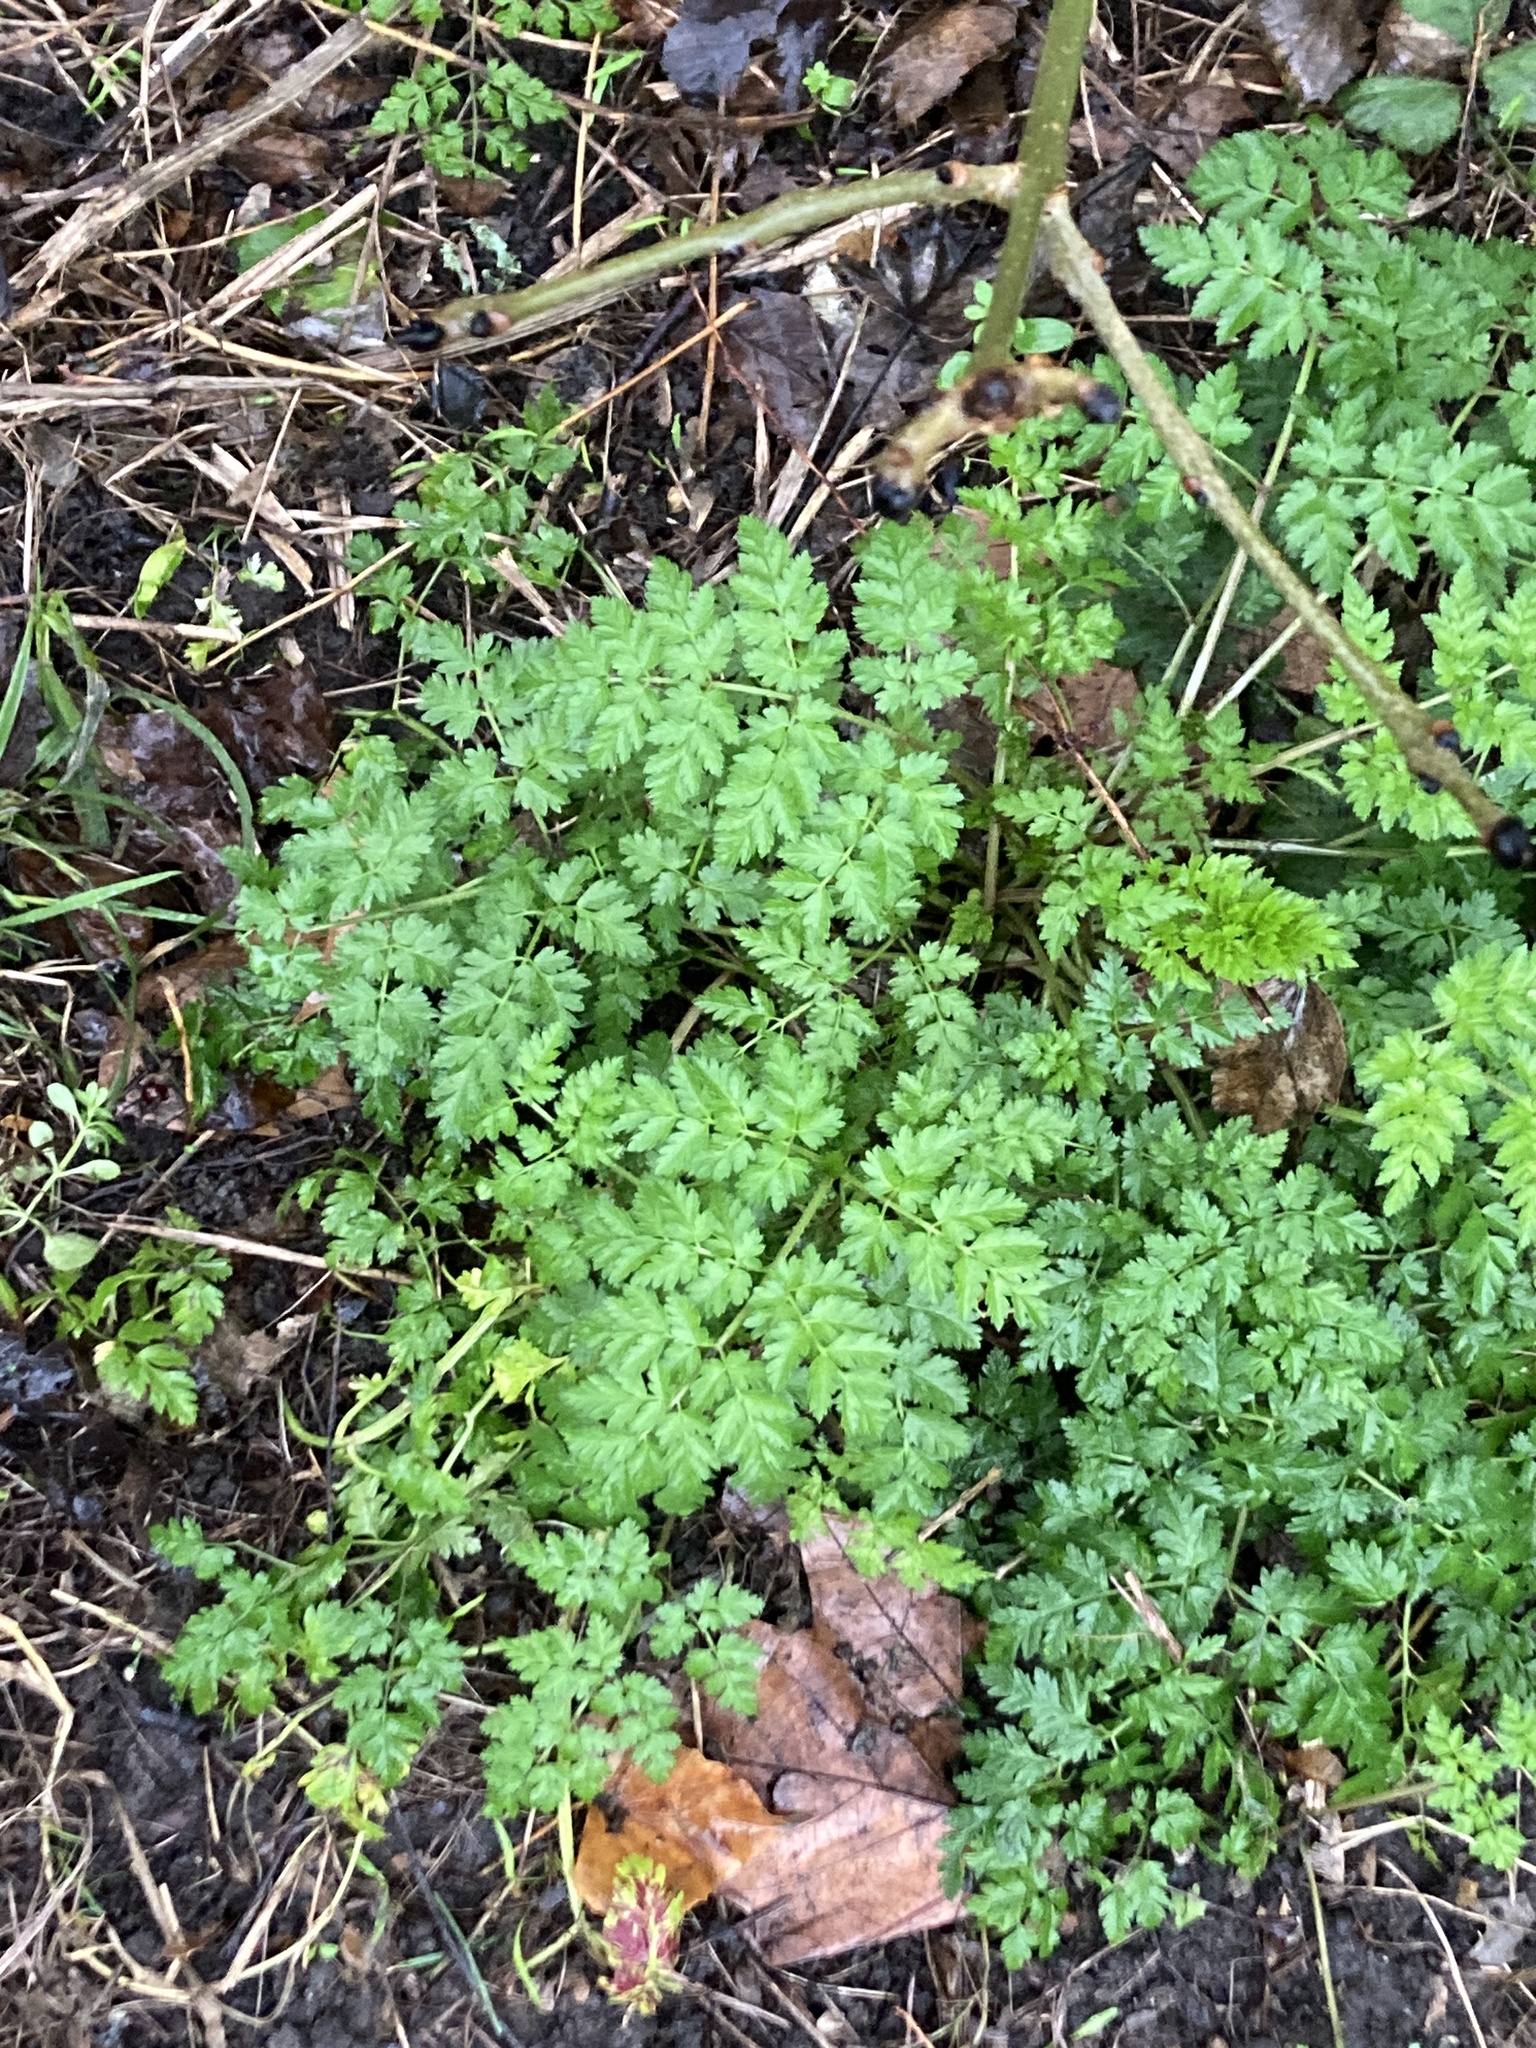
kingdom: Plantae
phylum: Tracheophyta
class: Magnoliopsida
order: Apiales
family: Apiaceae
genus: Anthriscus
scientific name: Anthriscus sylvestris
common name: Cow parsley
